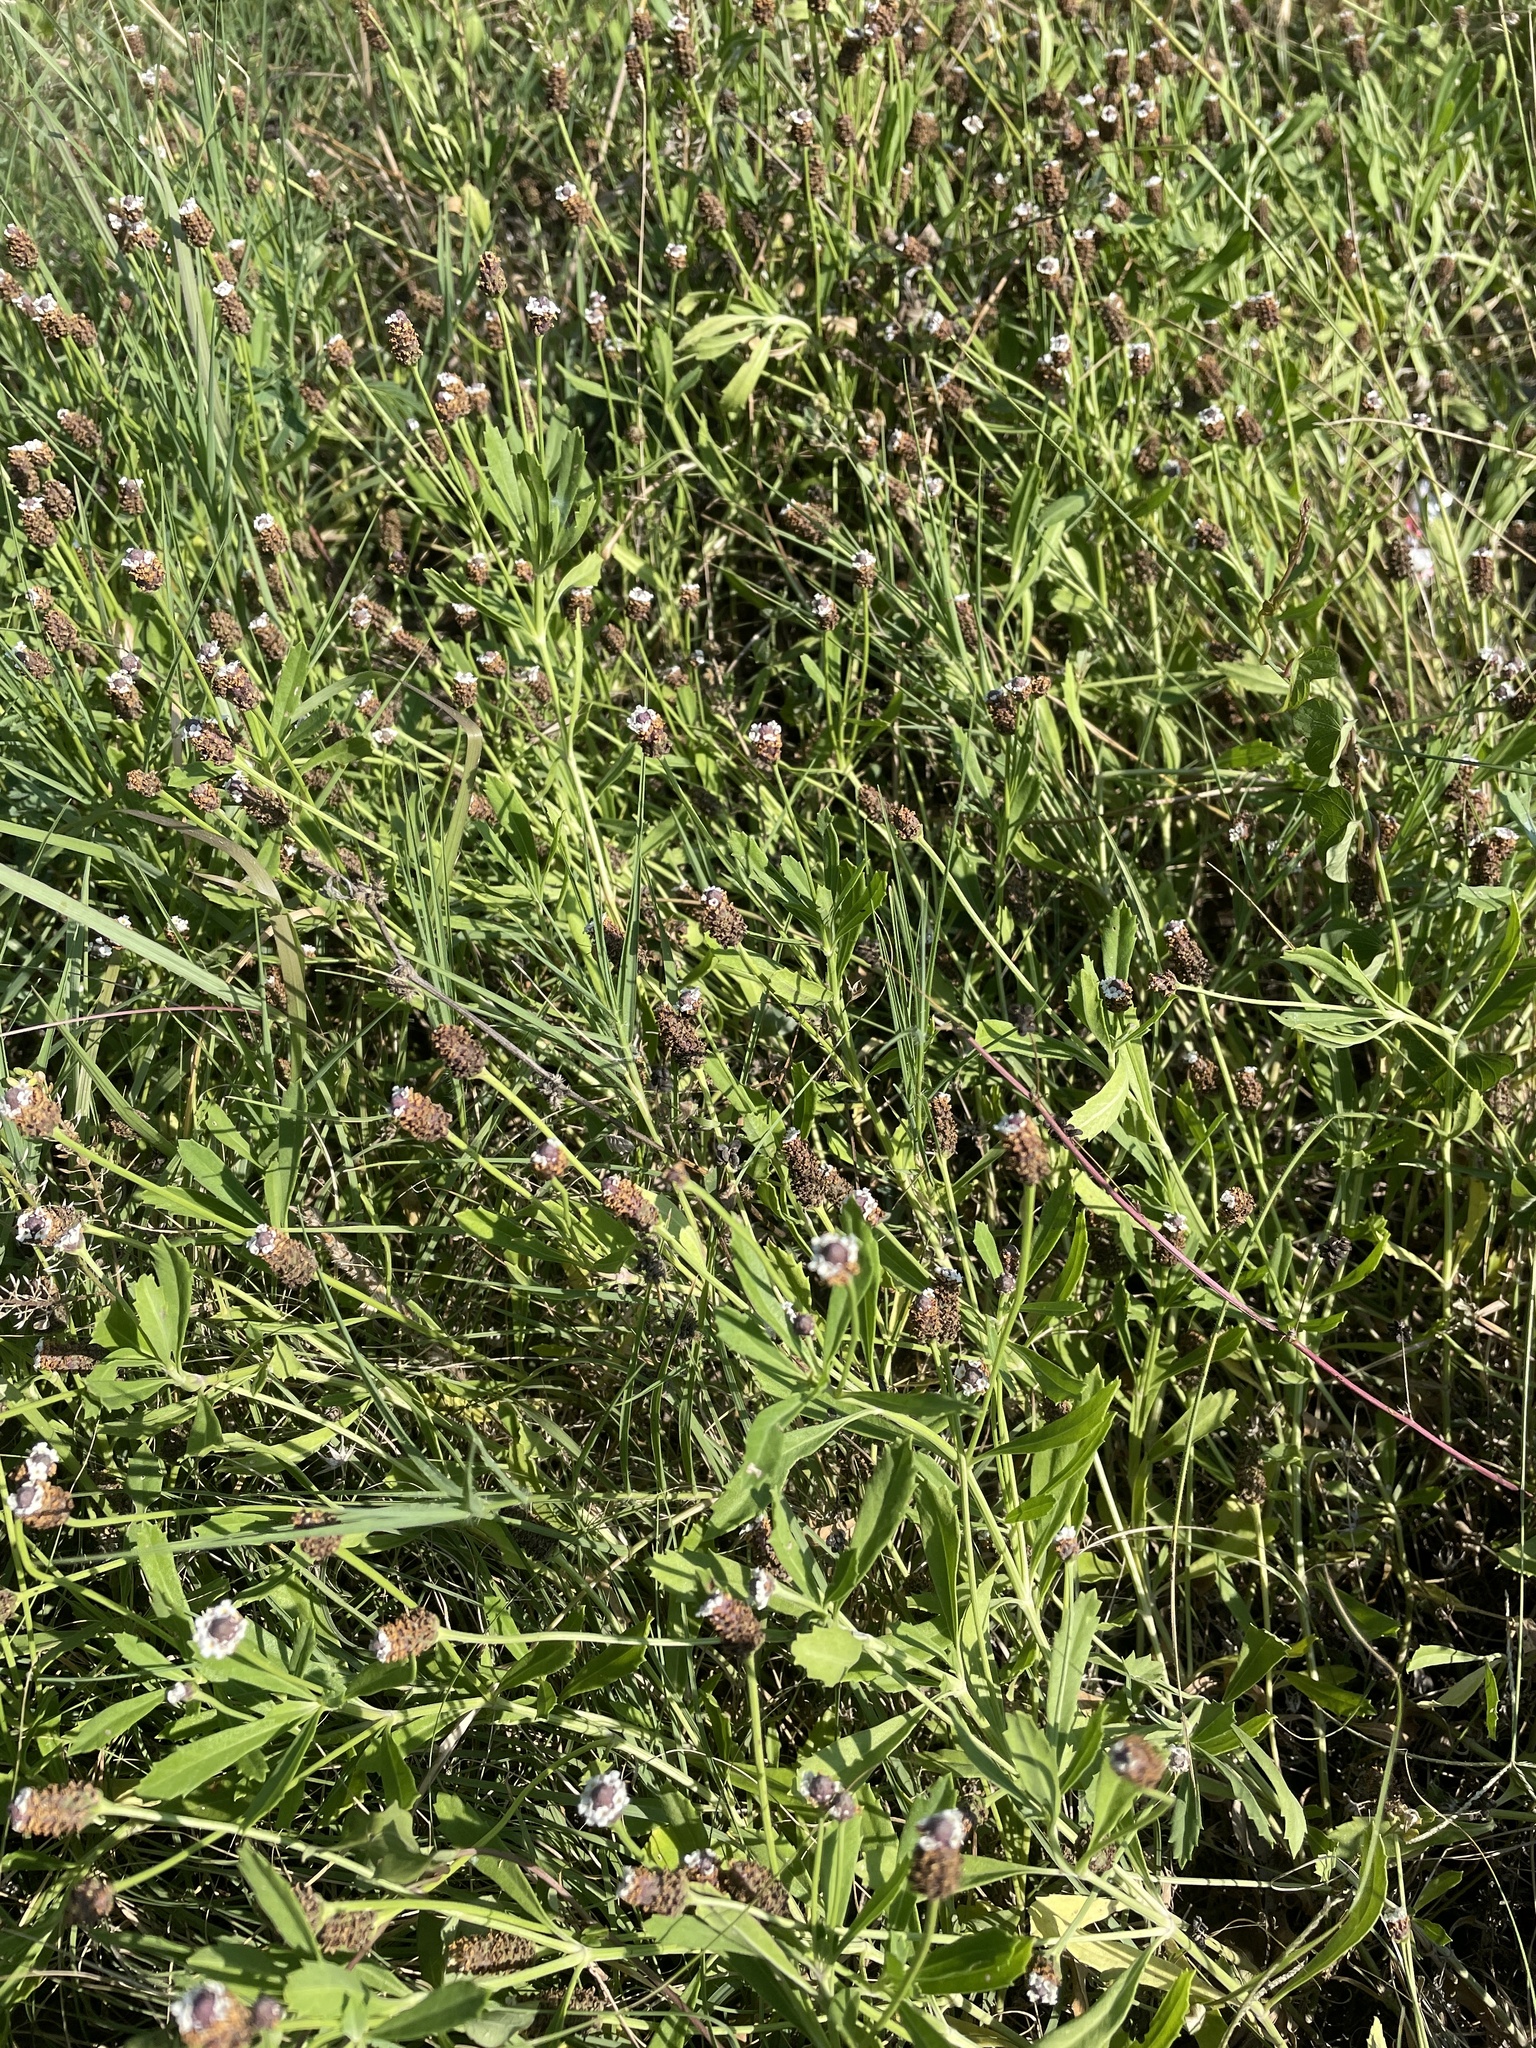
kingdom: Plantae
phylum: Tracheophyta
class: Magnoliopsida
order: Lamiales
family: Verbenaceae
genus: Phyla
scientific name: Phyla nodiflora
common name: Frogfruit
